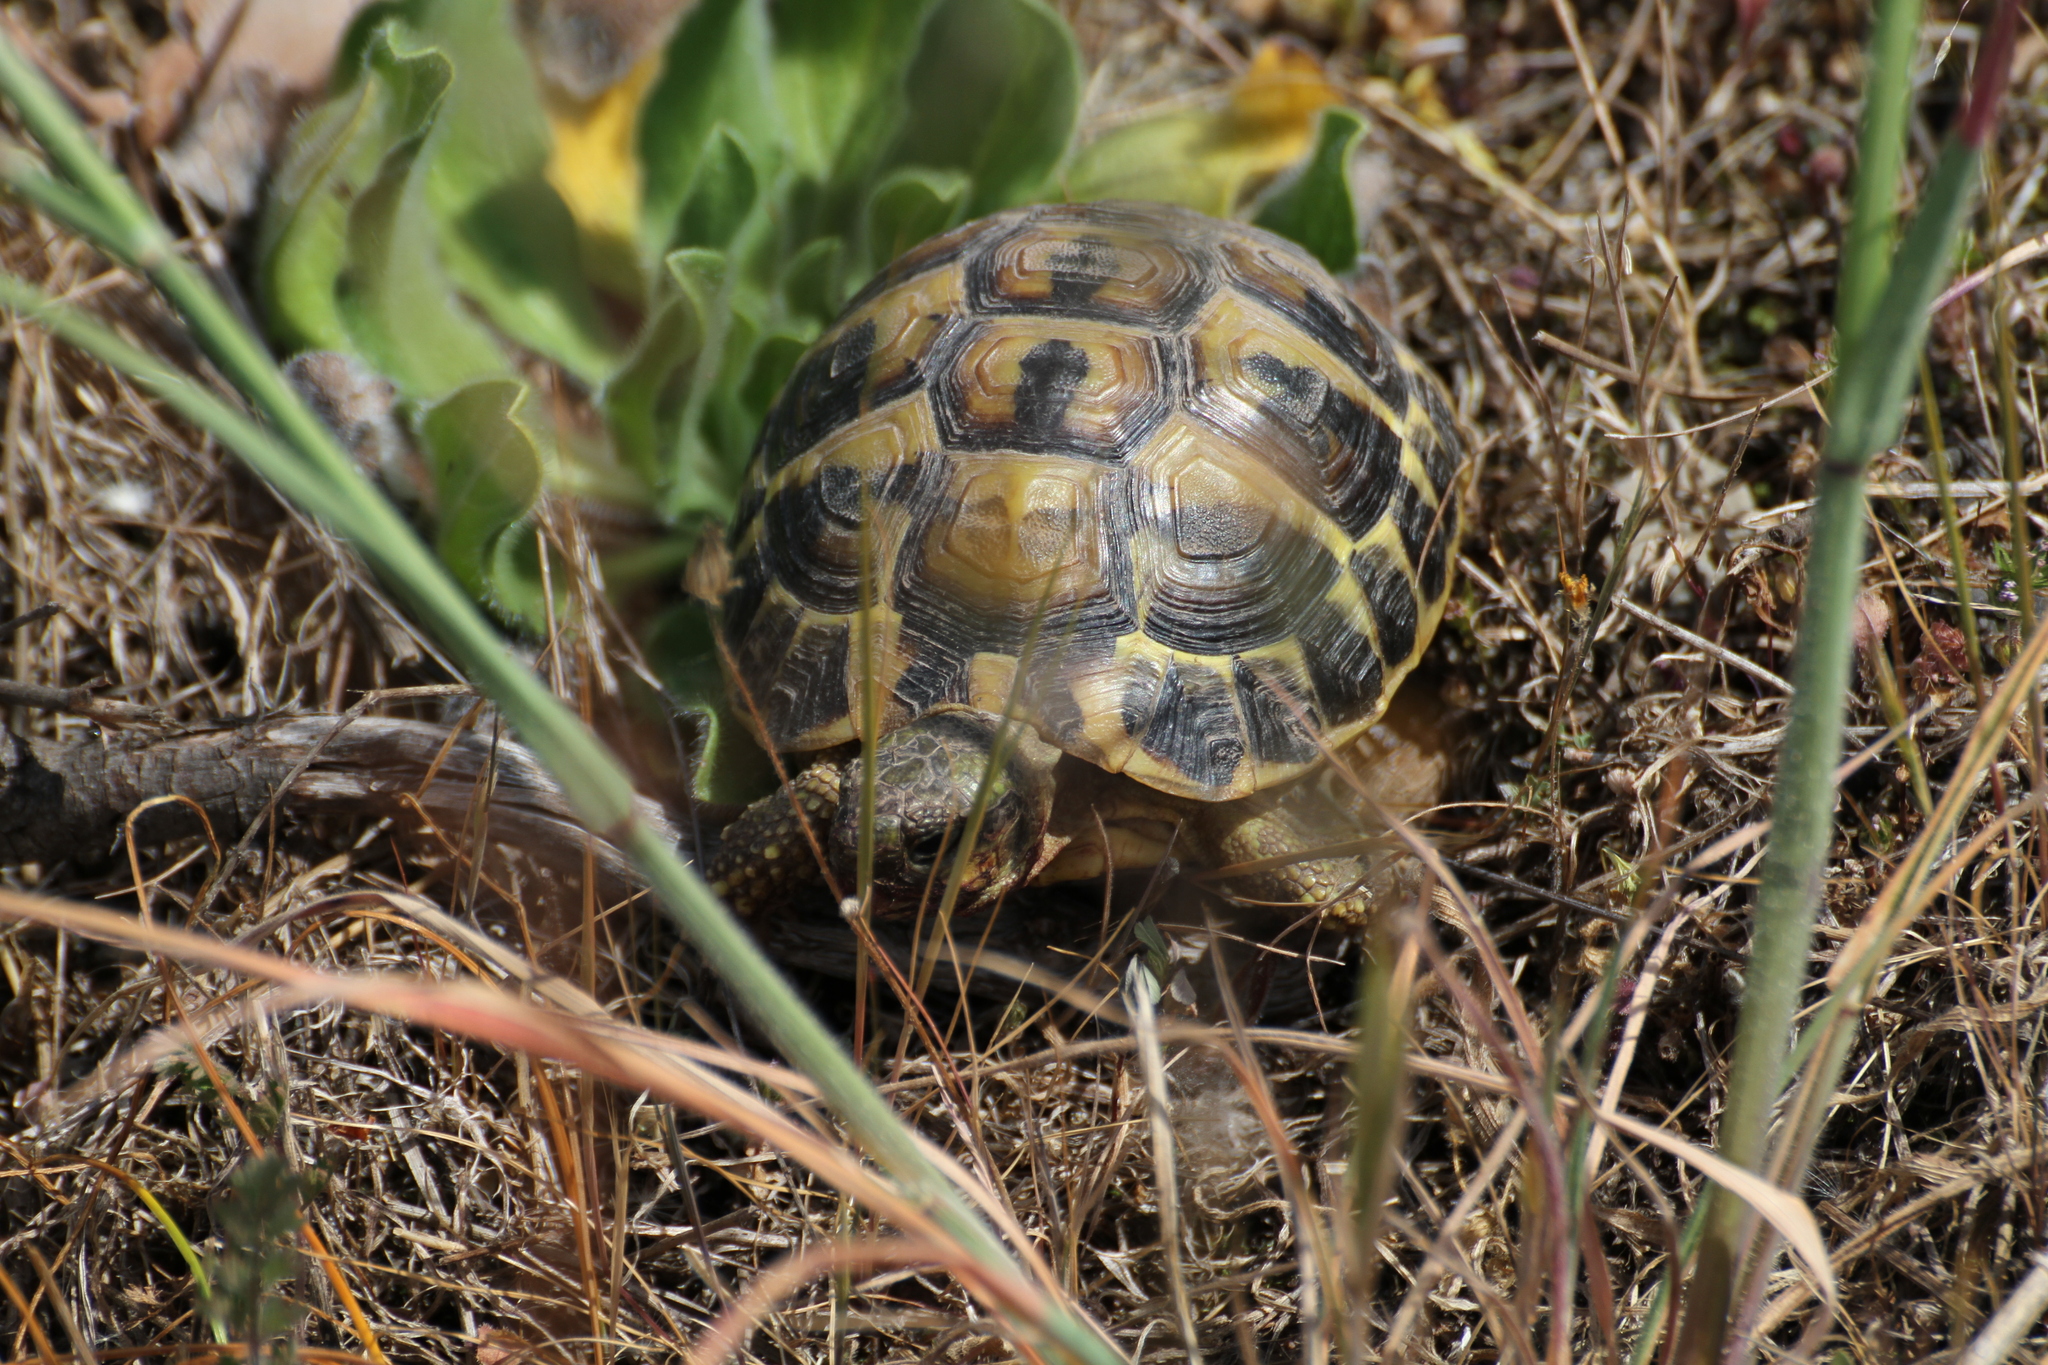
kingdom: Animalia
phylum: Chordata
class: Testudines
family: Testudinidae
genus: Testudo
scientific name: Testudo hermanni
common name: Hermann's tortoise
